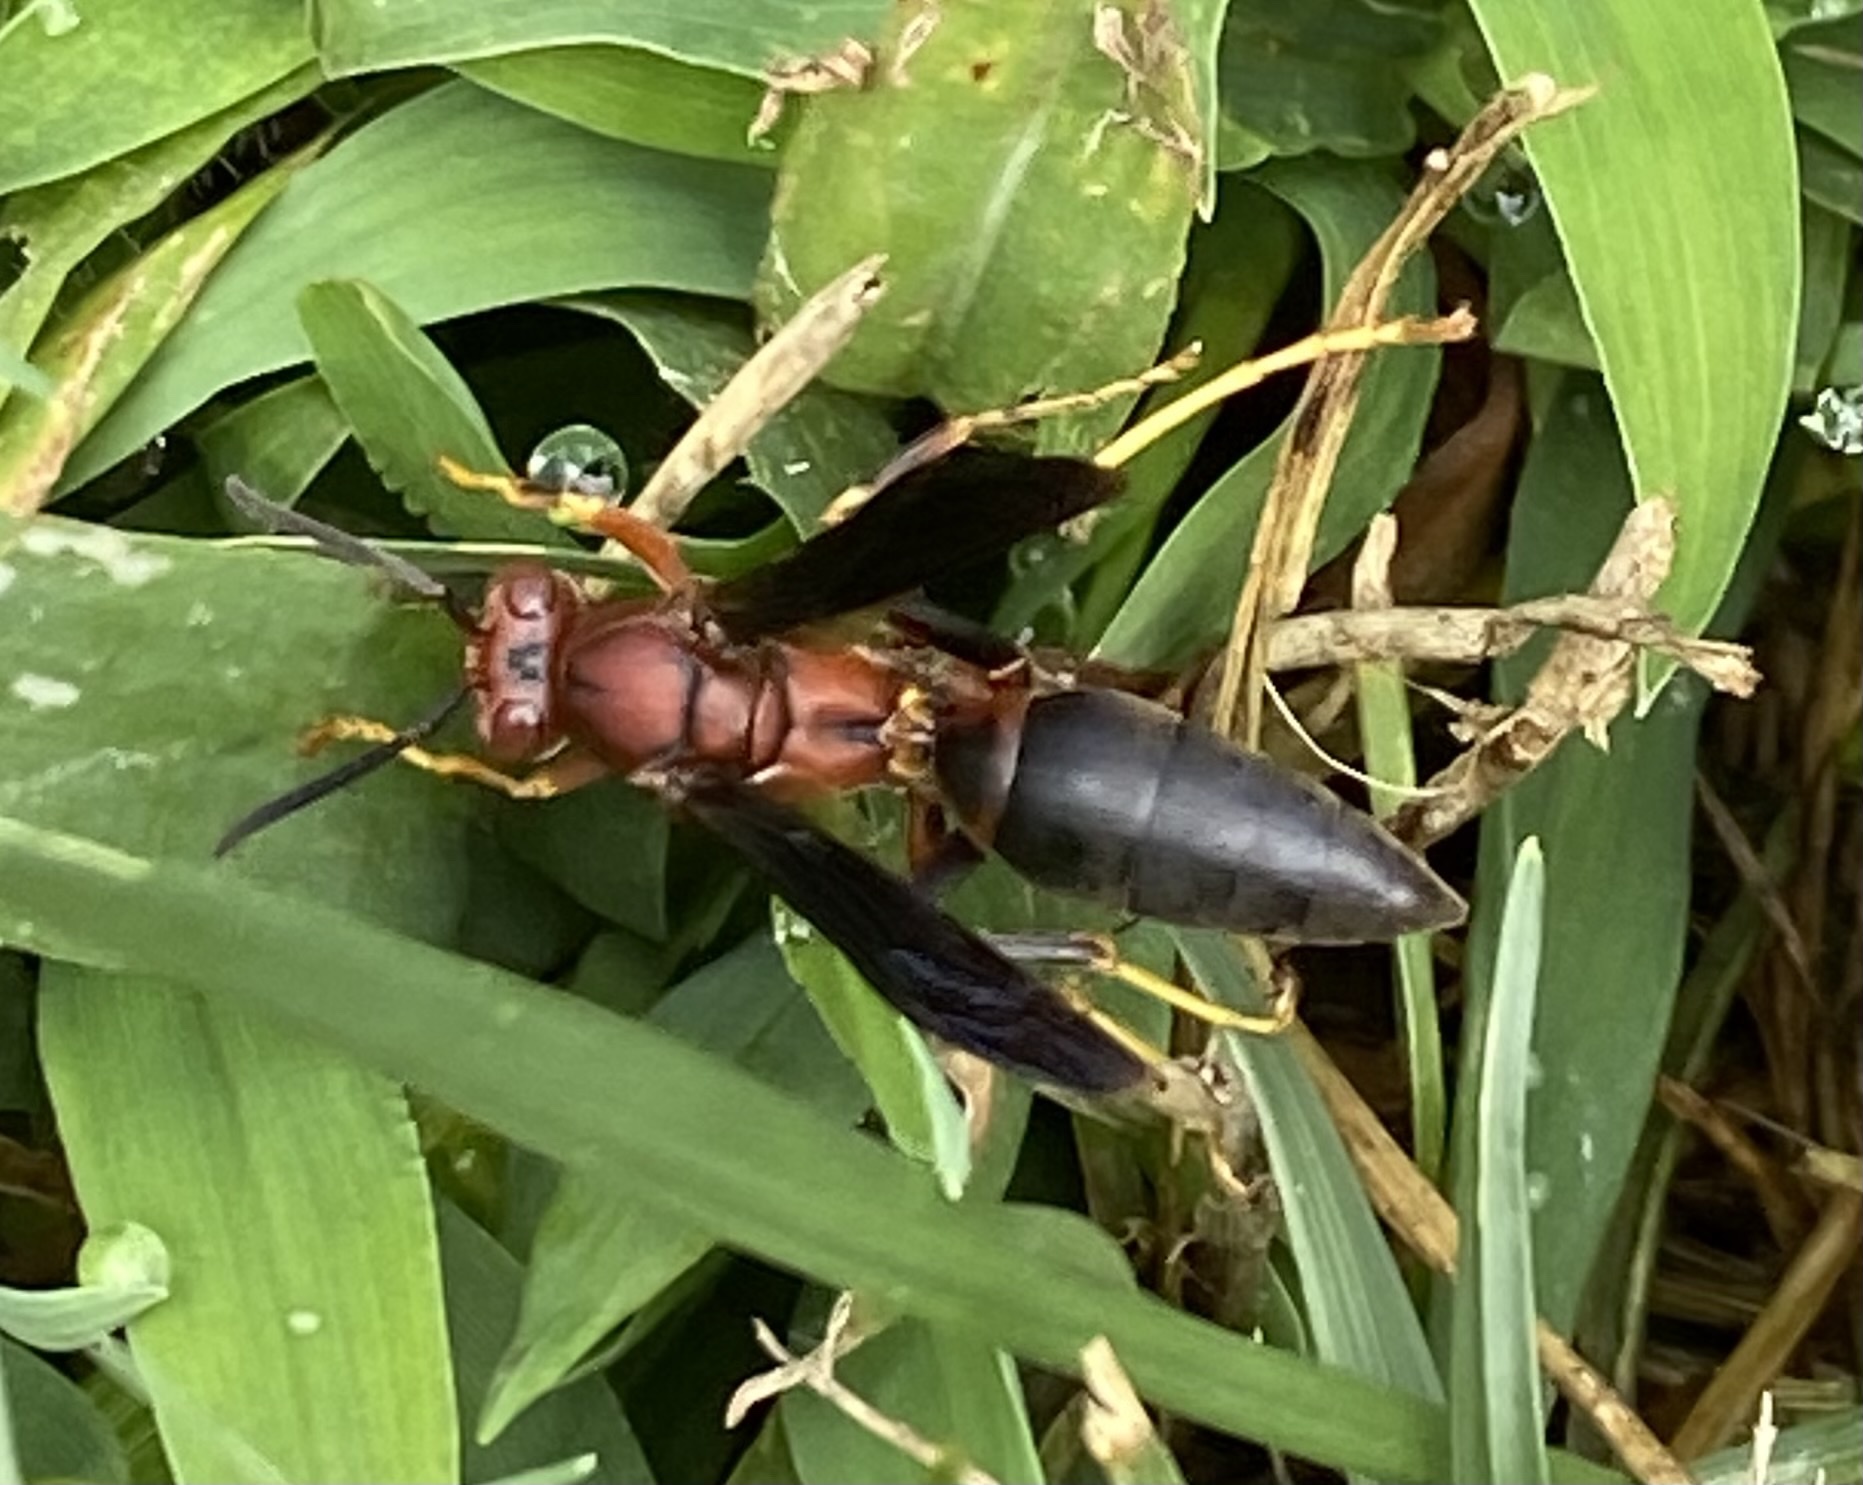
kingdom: Animalia
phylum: Arthropoda
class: Insecta
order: Hymenoptera
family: Eumenidae
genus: Polistes
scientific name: Polistes metricus
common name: Metric paper wasp
